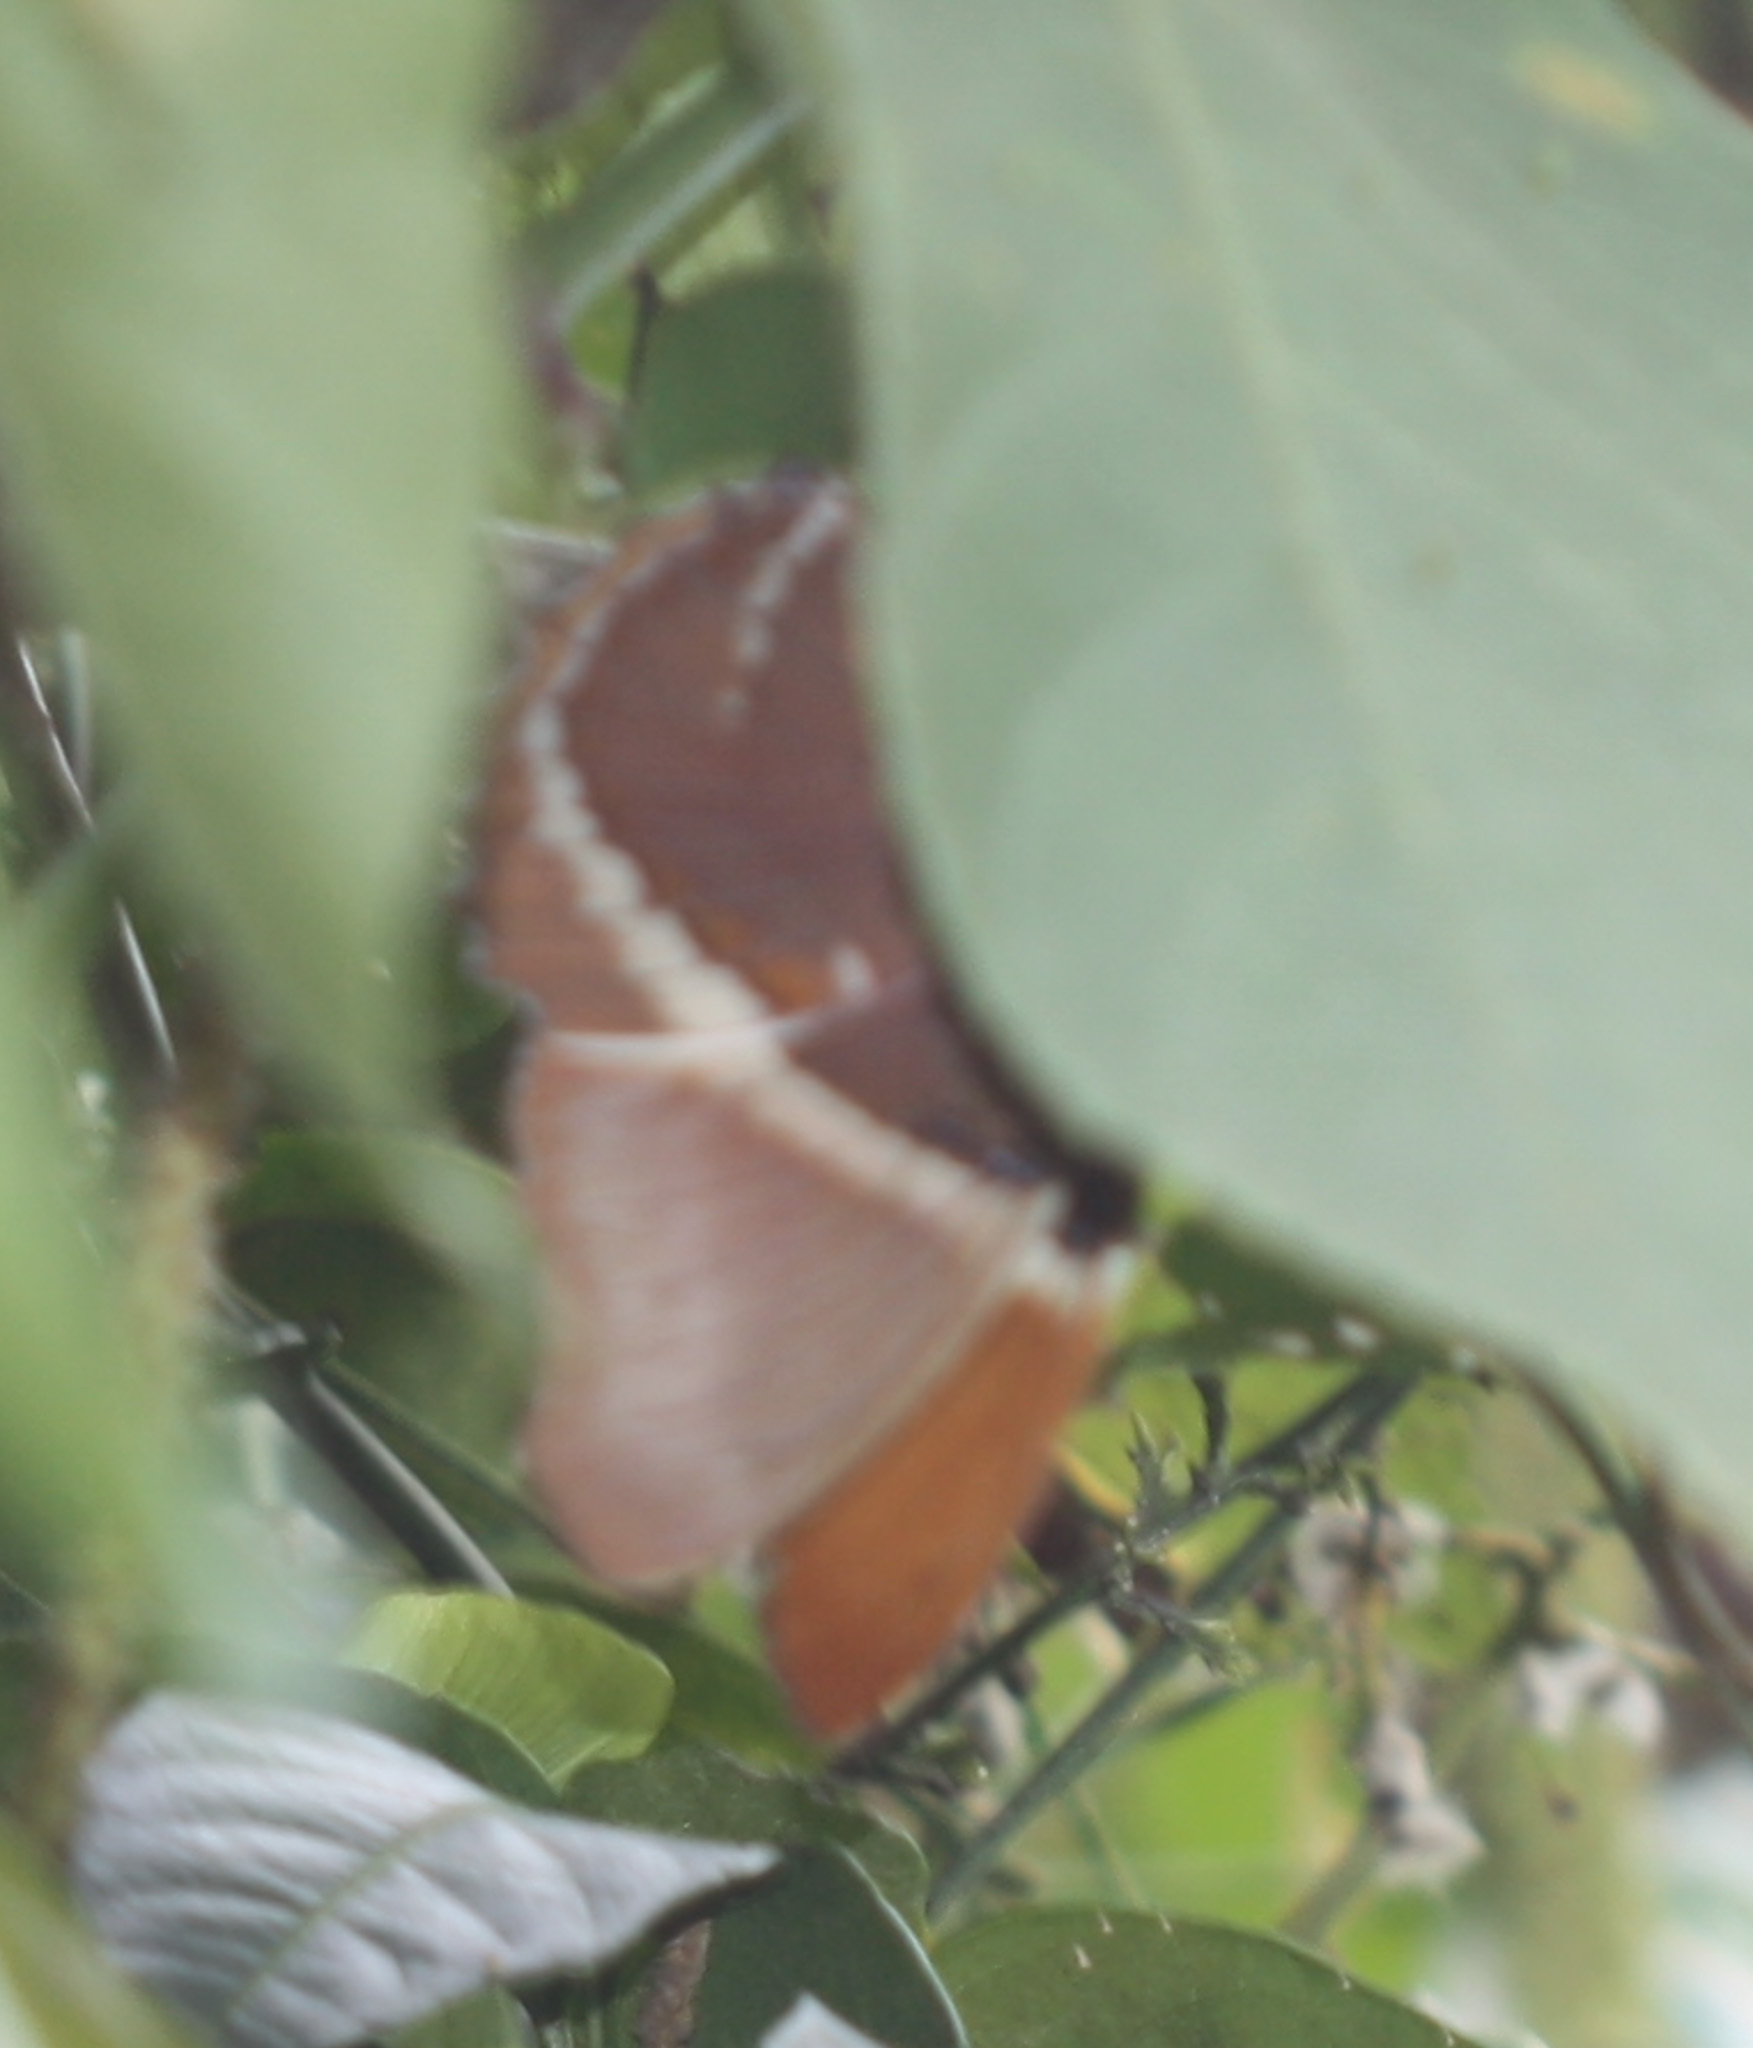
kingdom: Animalia
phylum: Arthropoda
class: Insecta
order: Lepidoptera
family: Nymphalidae
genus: Siproeta
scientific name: Siproeta epaphus
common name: Rusty-tipped page
